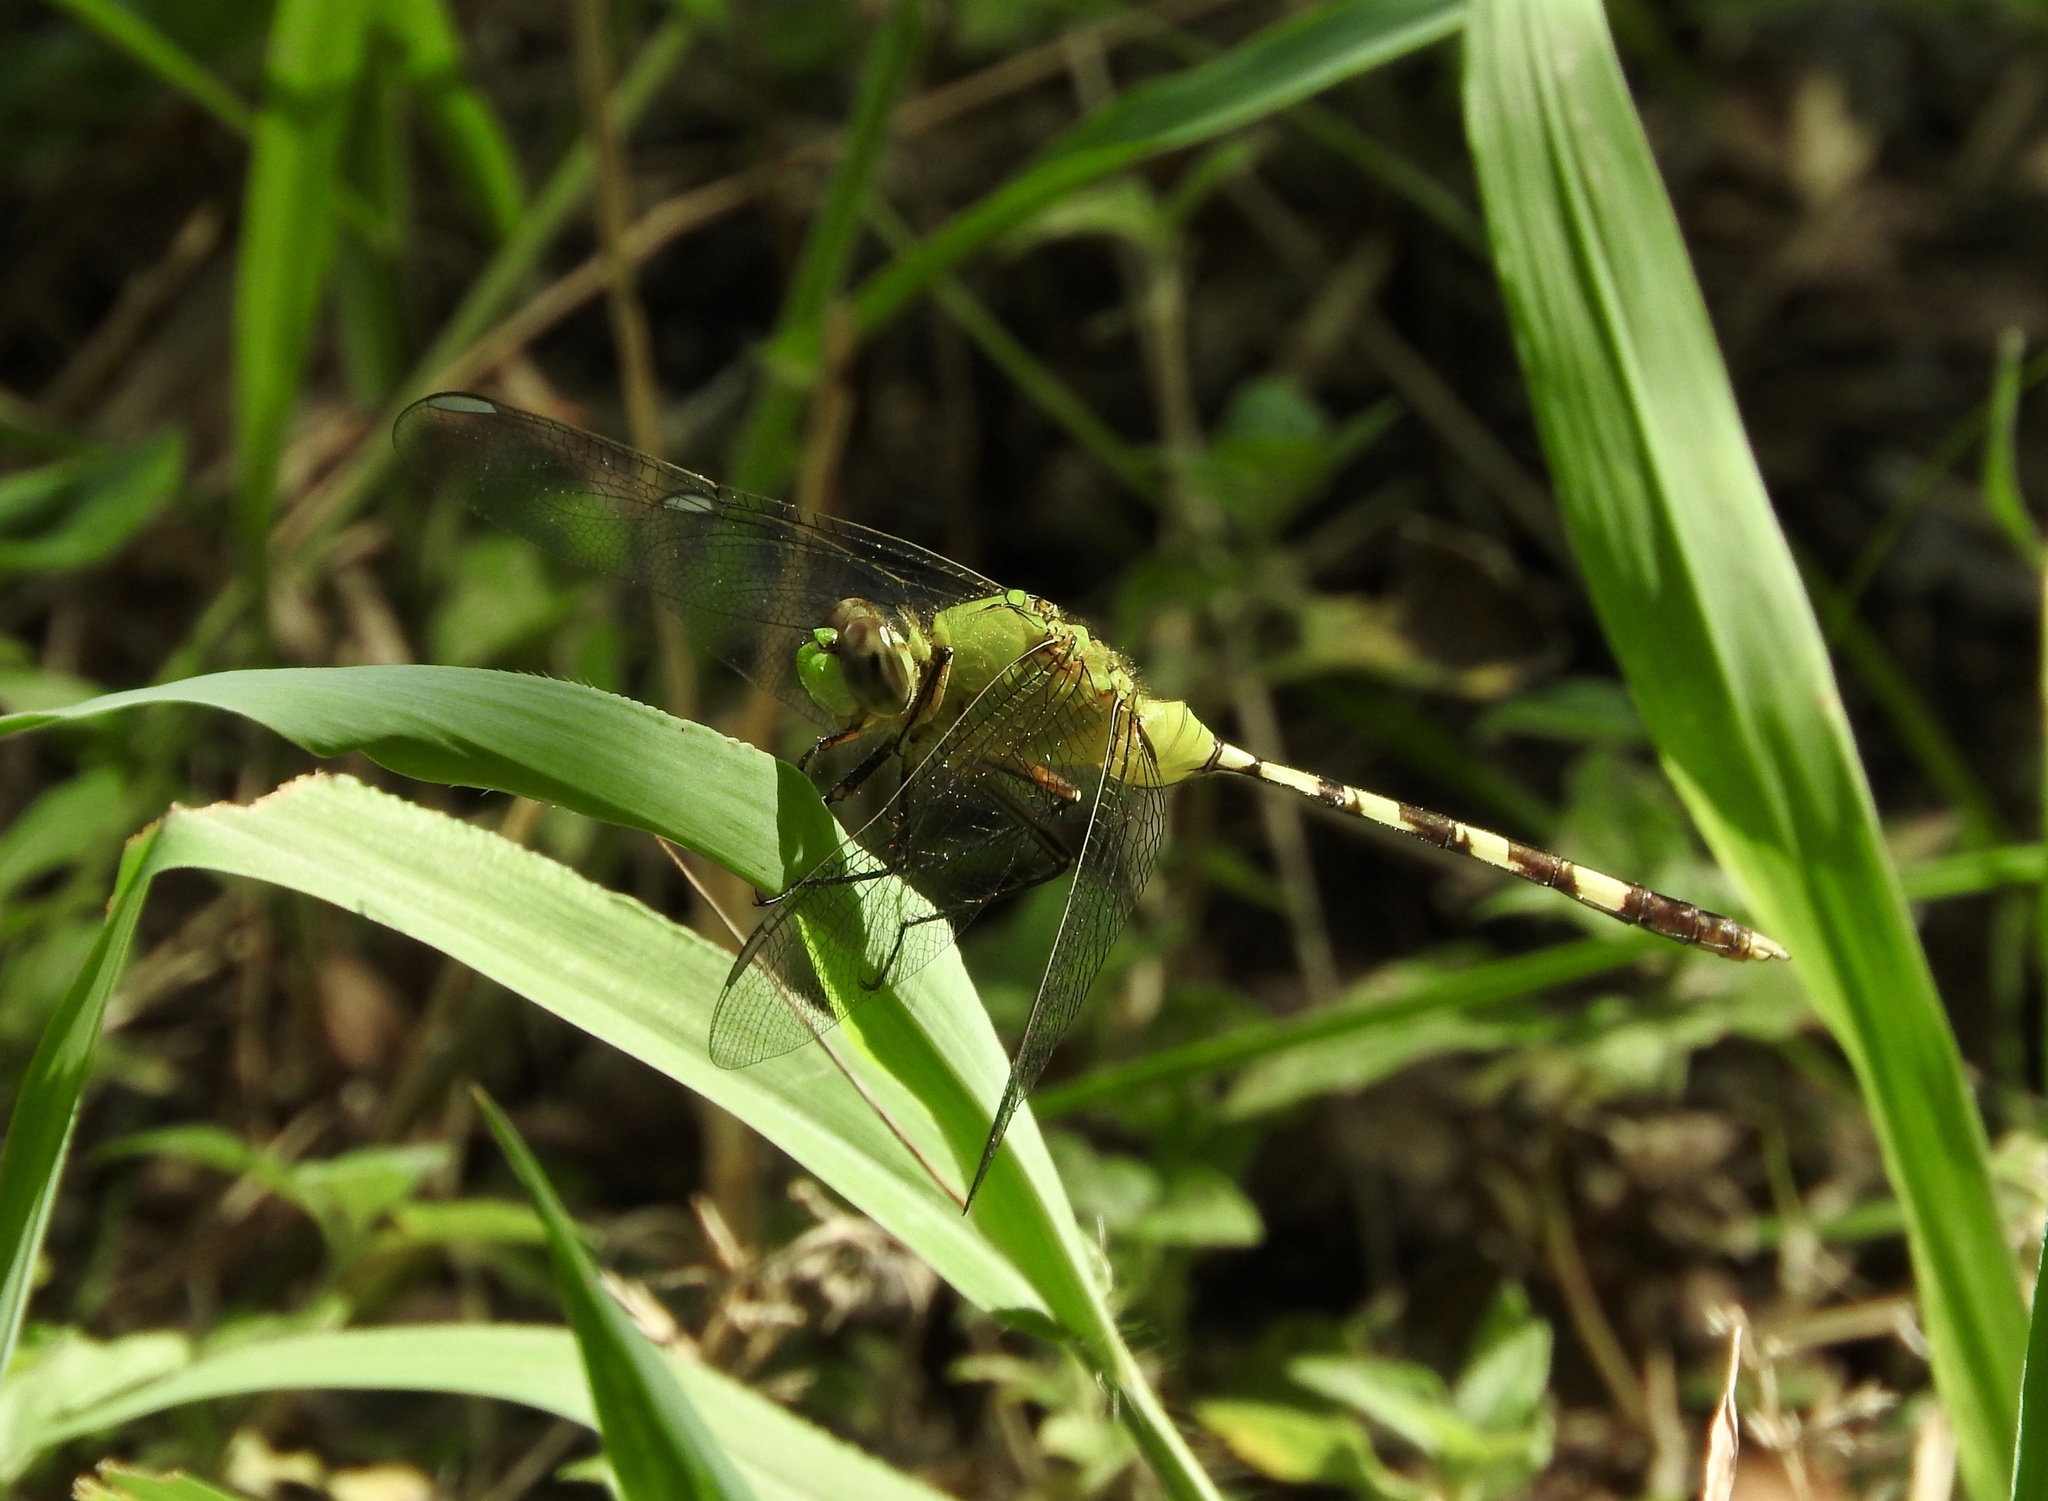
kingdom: Animalia
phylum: Arthropoda
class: Insecta
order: Odonata
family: Libellulidae
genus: Erythemis
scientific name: Erythemis vesiculosa
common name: Great pondhawk
